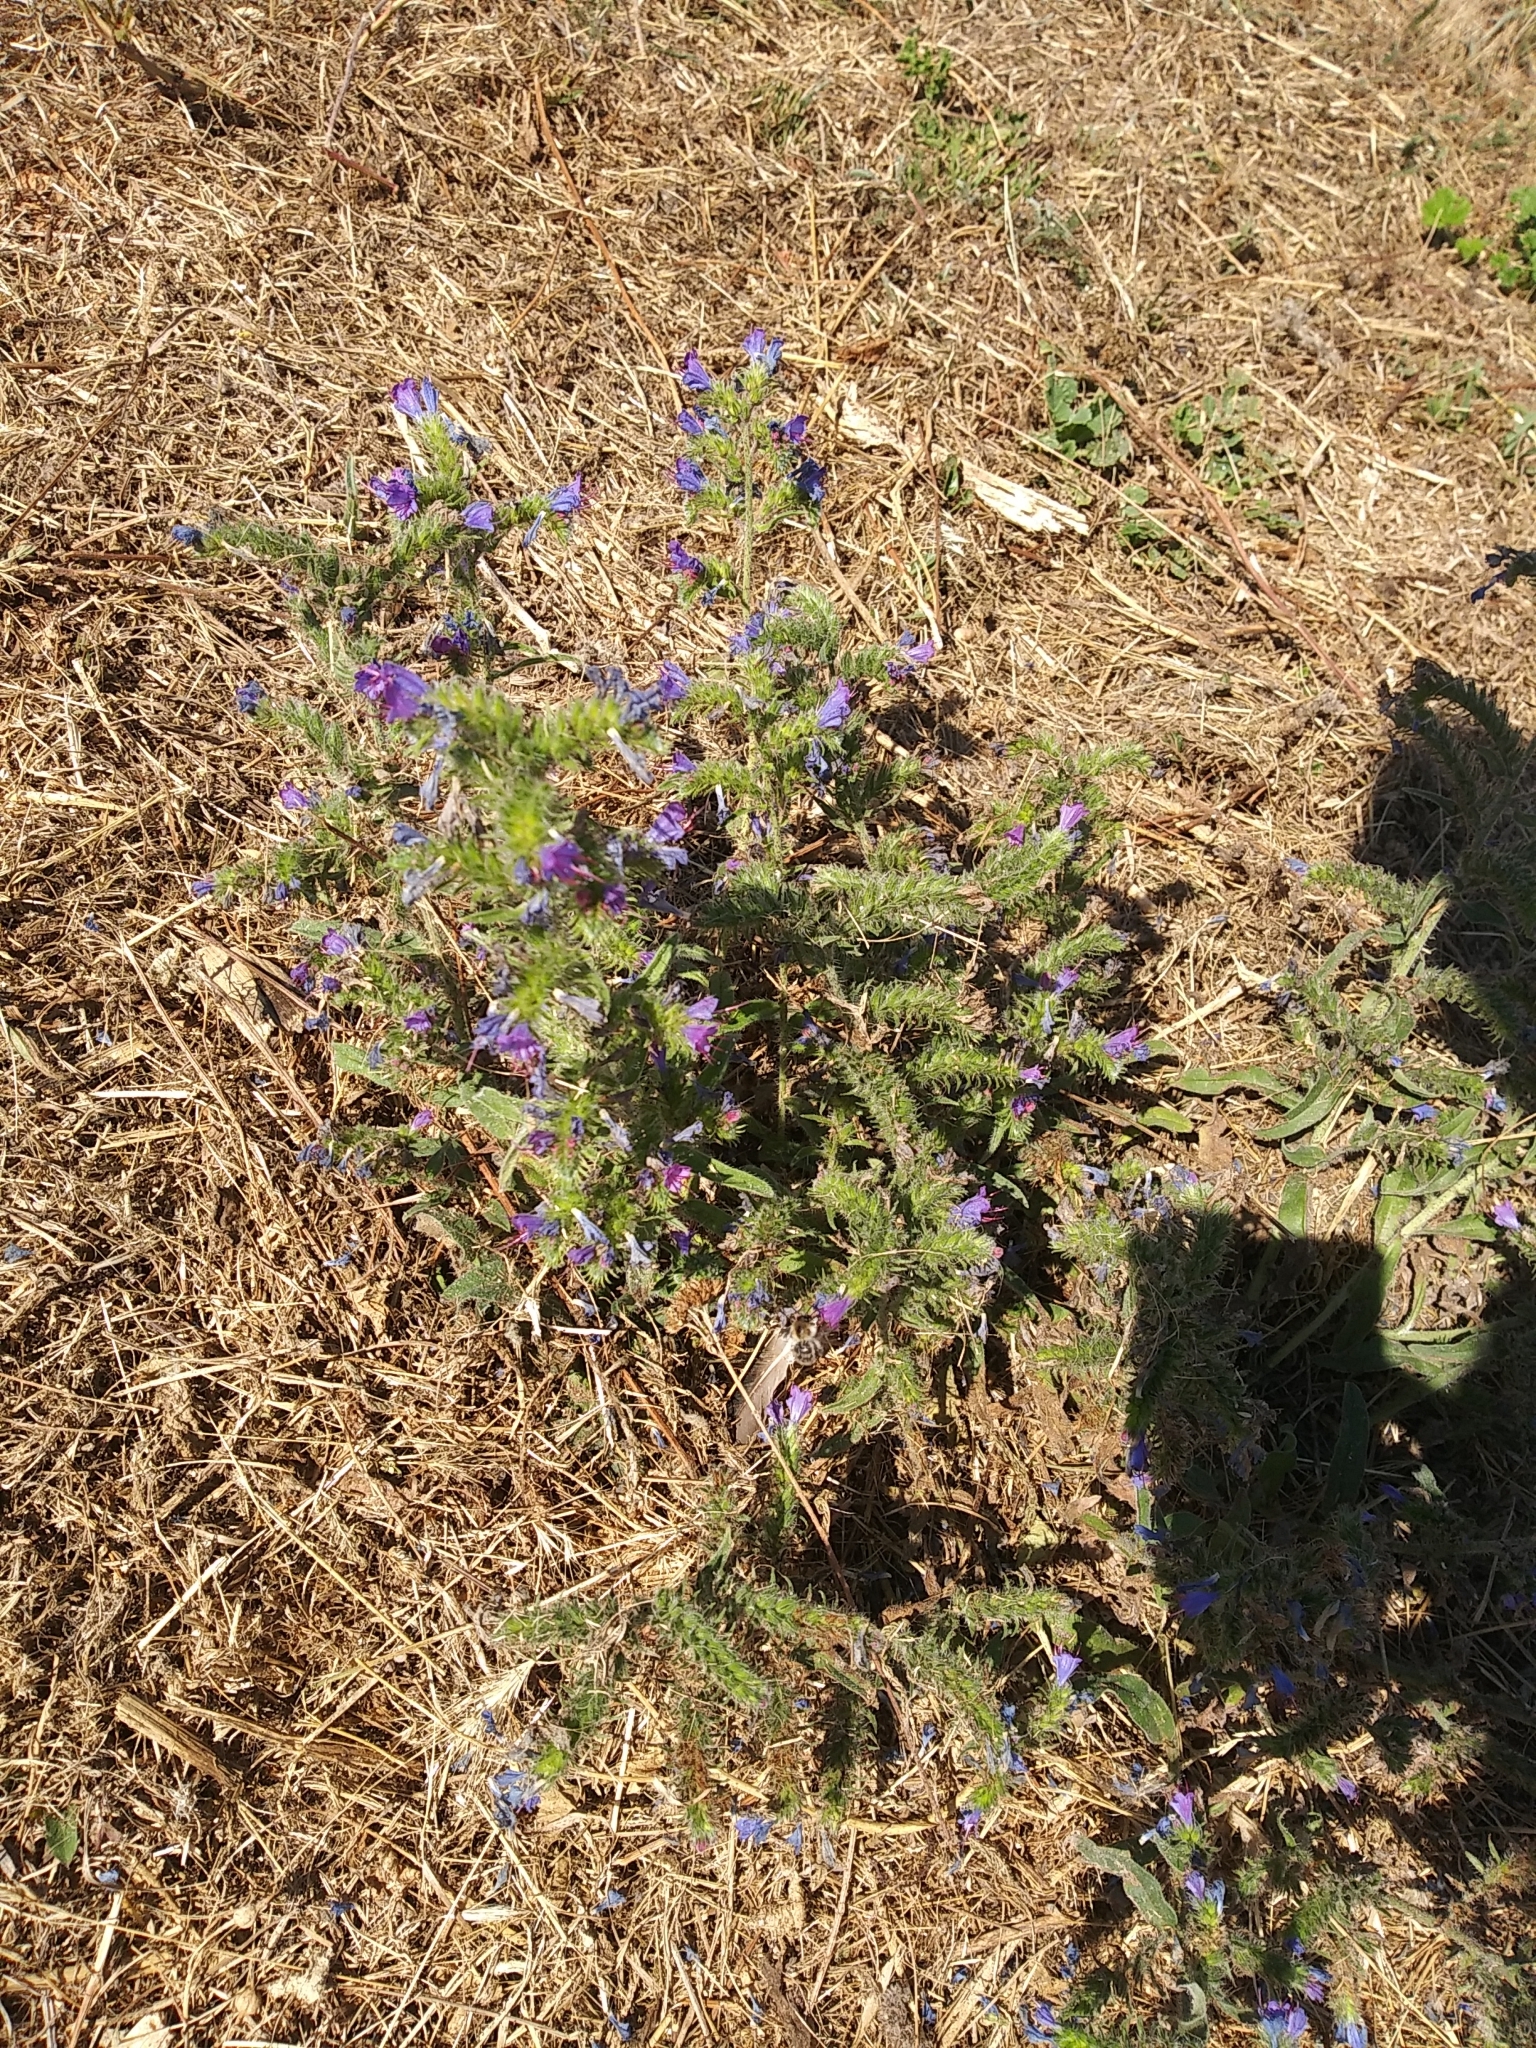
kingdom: Plantae
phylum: Tracheophyta
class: Magnoliopsida
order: Boraginales
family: Boraginaceae
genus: Echium
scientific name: Echium vulgare
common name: Common viper's bugloss
